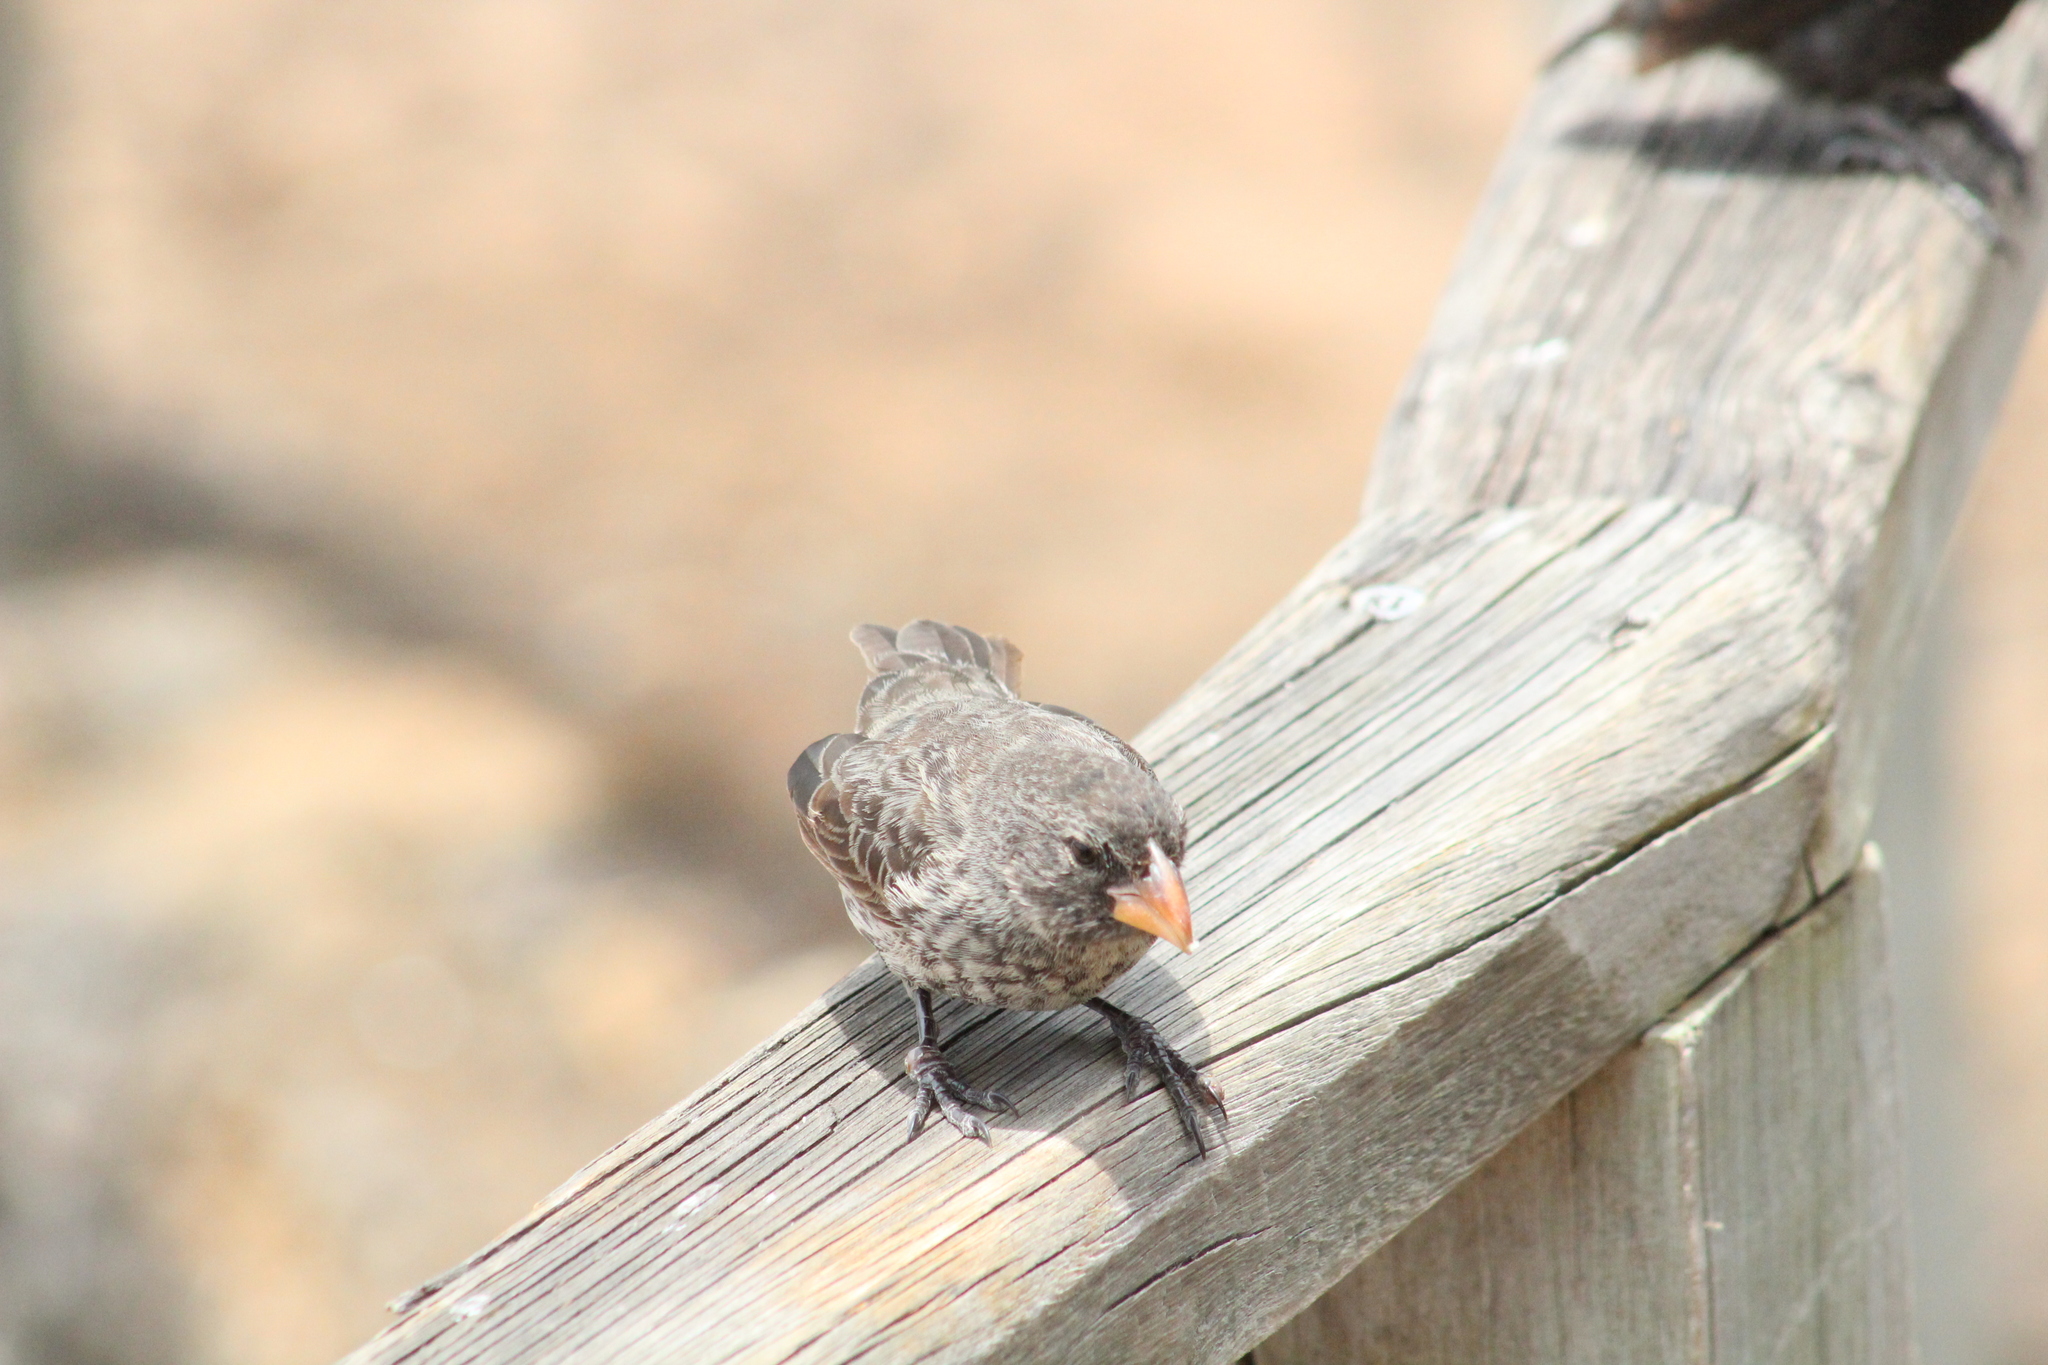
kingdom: Animalia
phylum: Chordata
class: Aves
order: Passeriformes
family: Thraupidae
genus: Geospiza
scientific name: Geospiza fortis
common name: Medium ground finch
